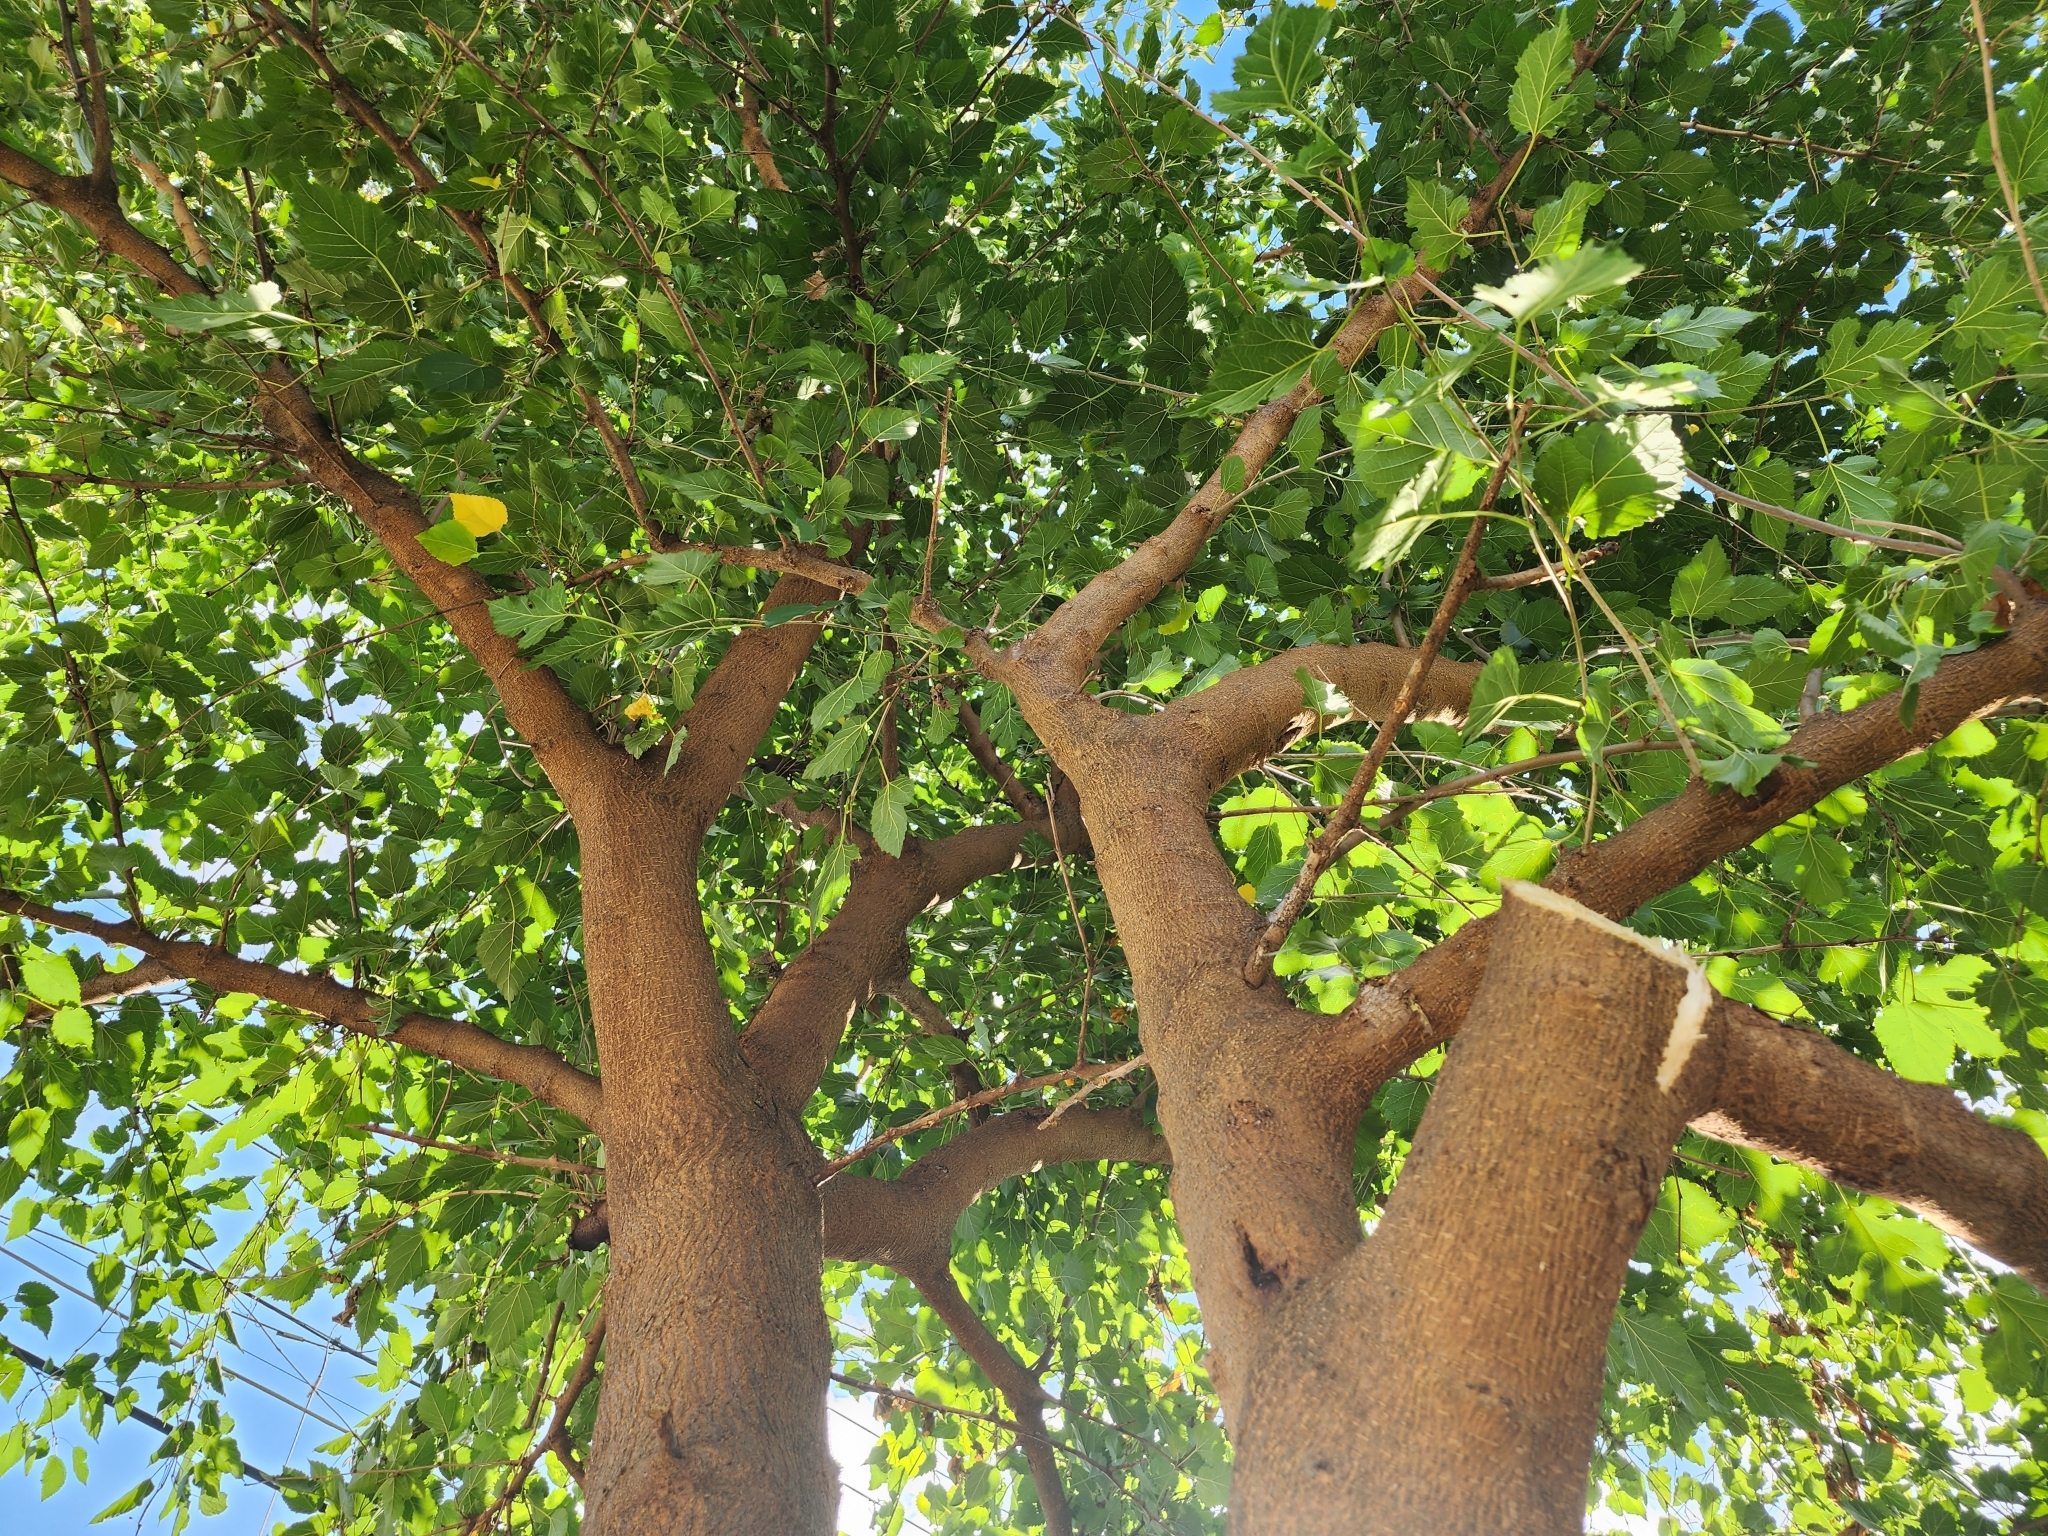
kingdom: Plantae
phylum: Tracheophyta
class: Magnoliopsida
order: Rosales
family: Moraceae
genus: Morus
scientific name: Morus alba
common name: White mulberry
